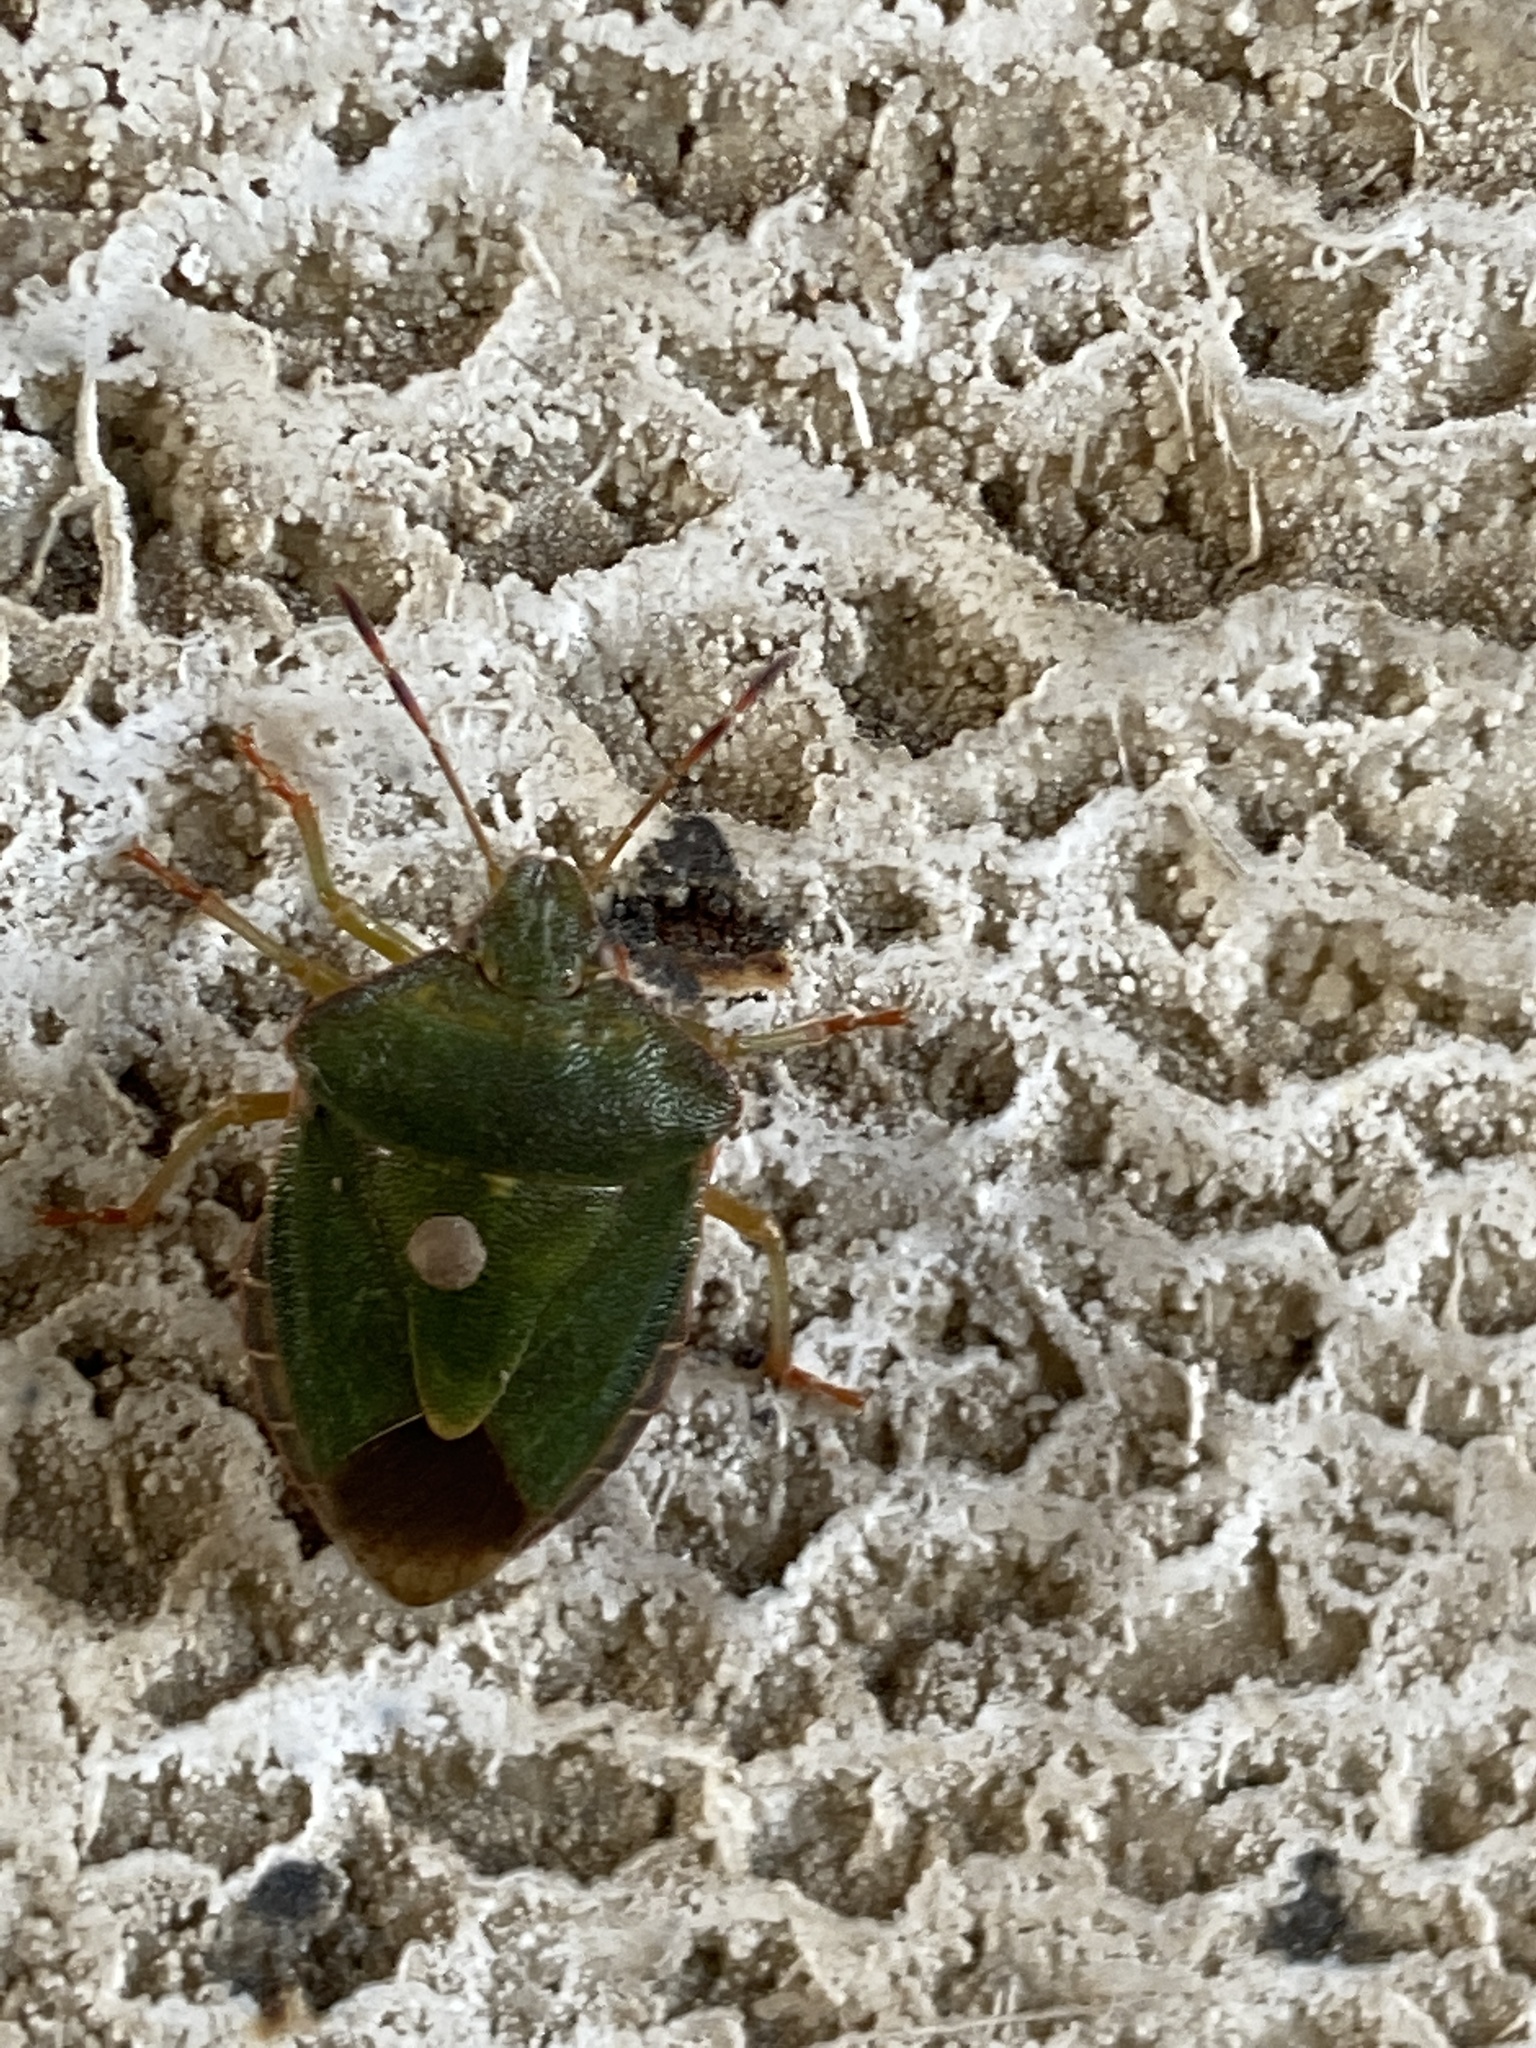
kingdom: Animalia
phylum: Arthropoda
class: Insecta
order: Hemiptera
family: Pentatomidae
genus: Palomena
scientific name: Palomena prasina
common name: Green shieldbug
